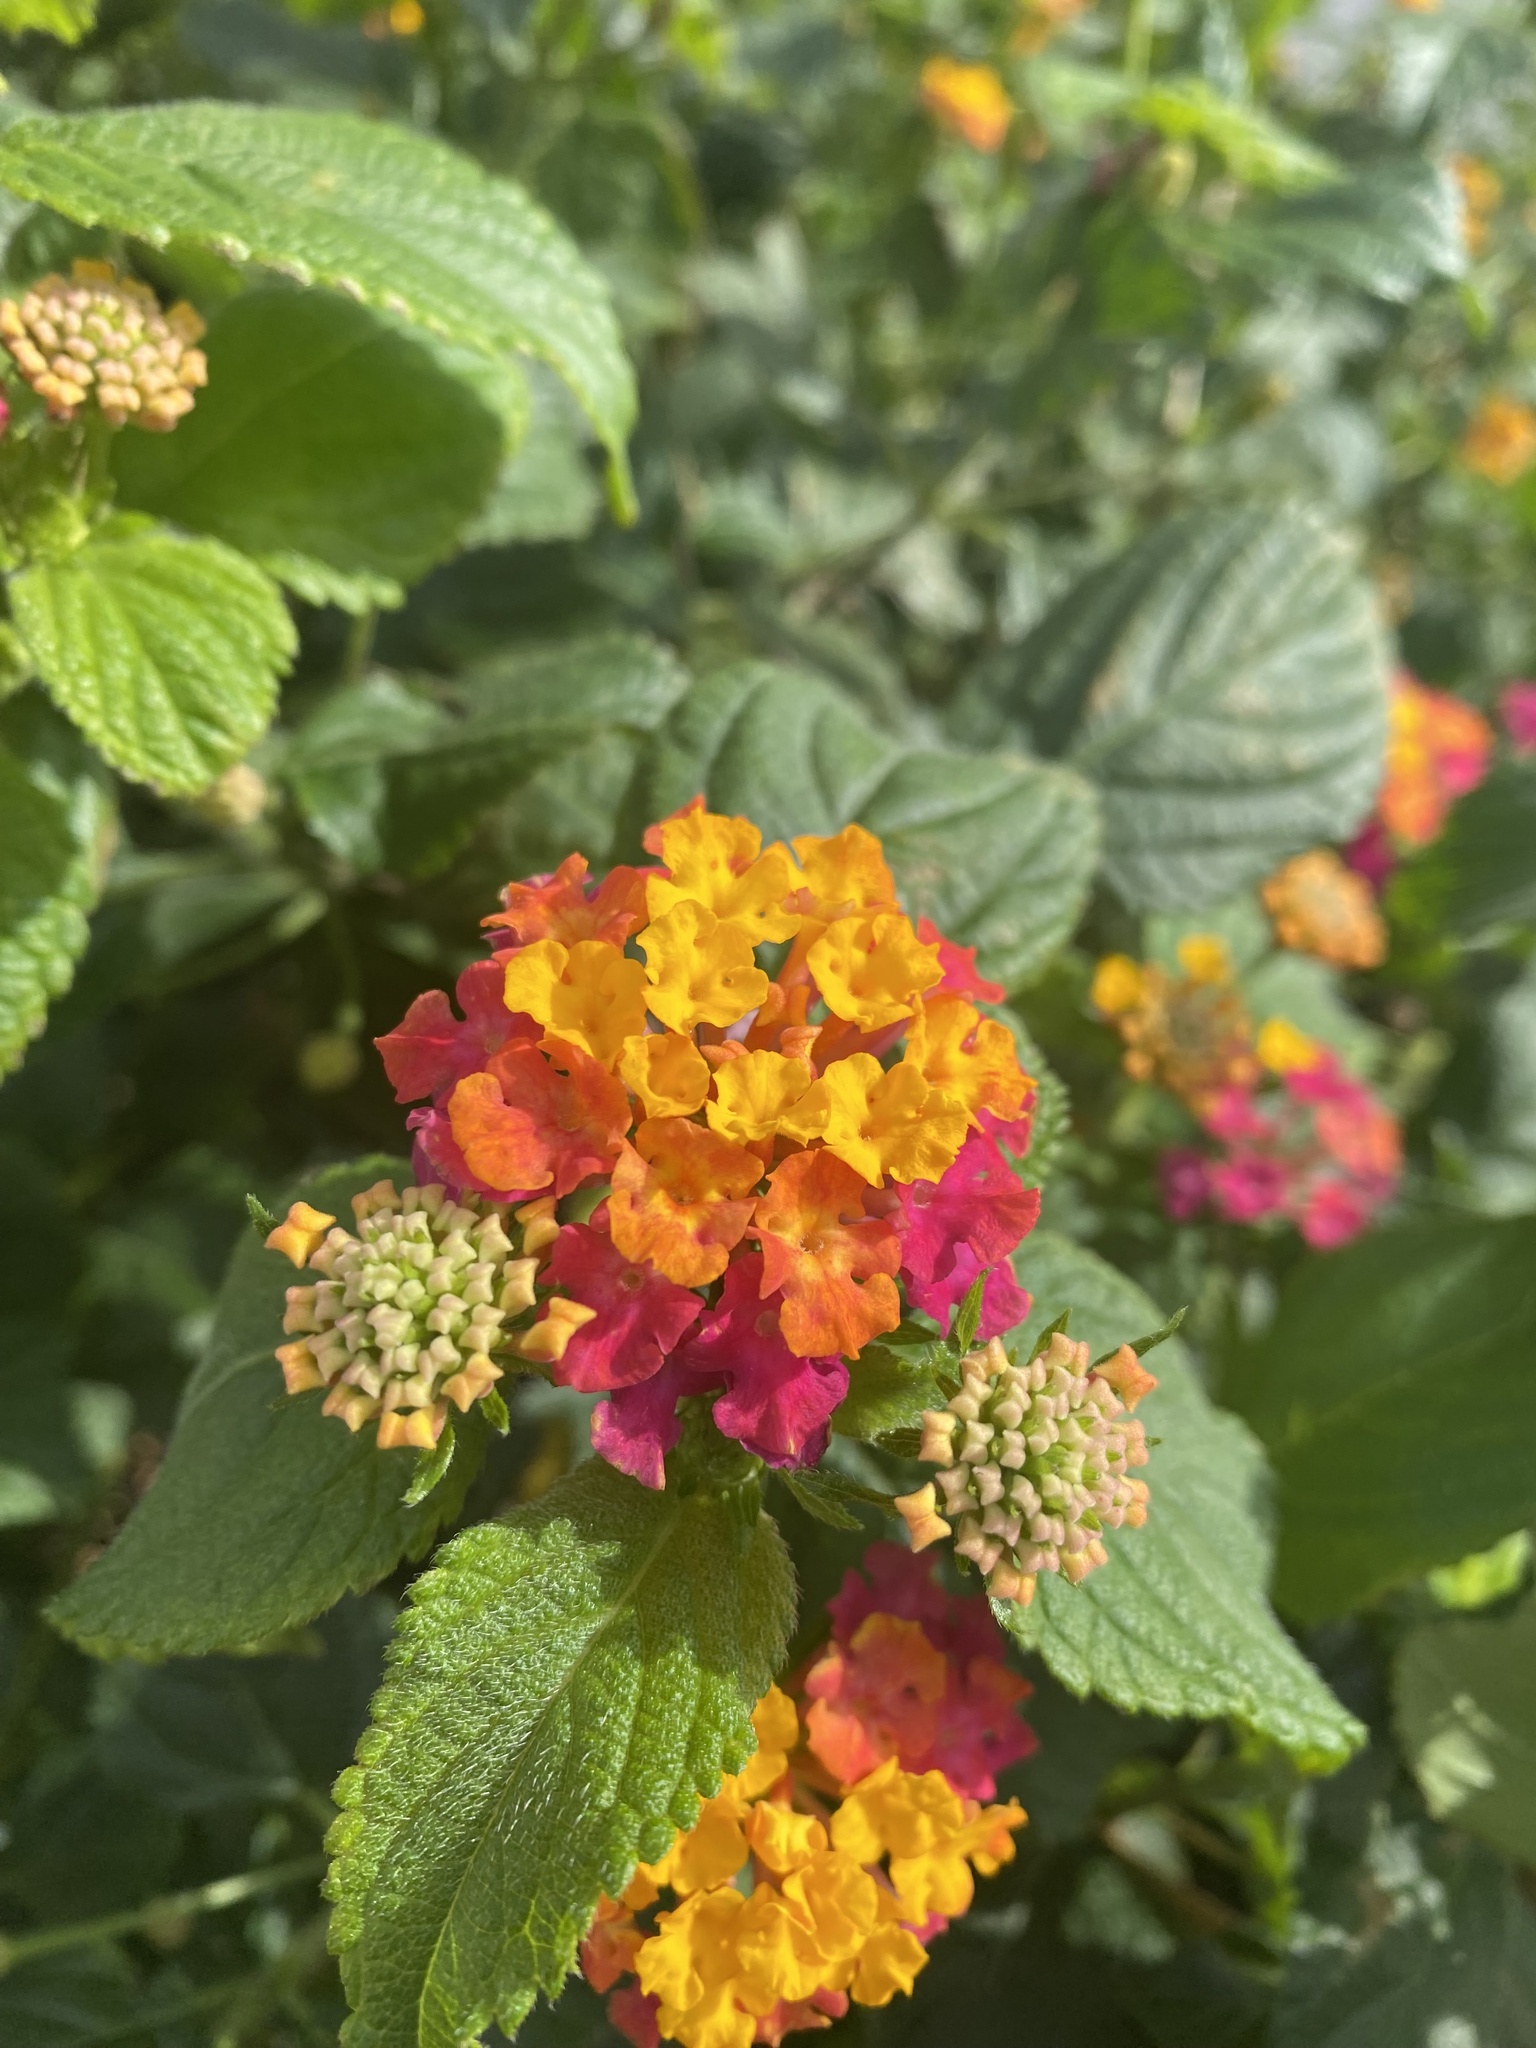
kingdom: Plantae
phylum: Tracheophyta
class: Magnoliopsida
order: Lamiales
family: Verbenaceae
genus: Lantana
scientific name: Lantana camara
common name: Lantana
